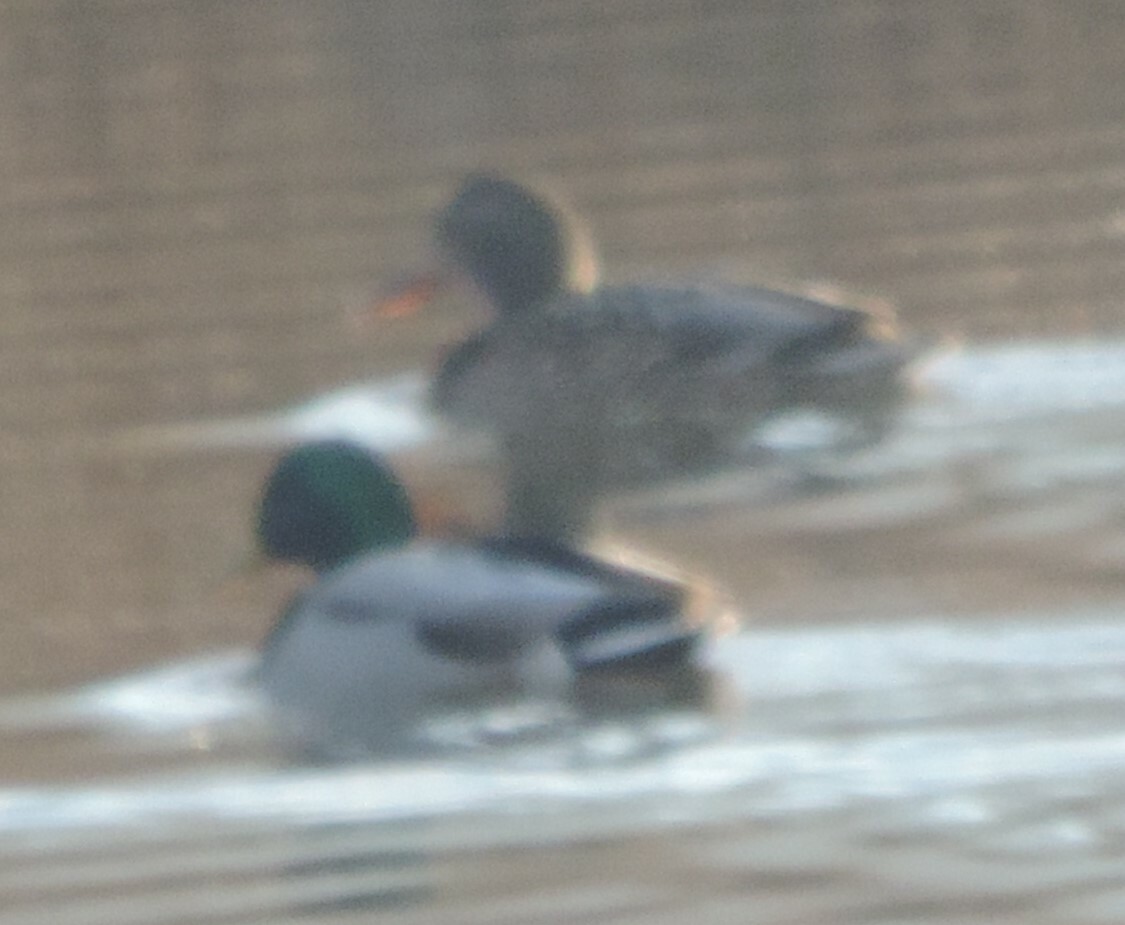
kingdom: Animalia
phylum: Chordata
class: Aves
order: Anseriformes
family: Anatidae
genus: Anas
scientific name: Anas platyrhynchos
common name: Mallard
